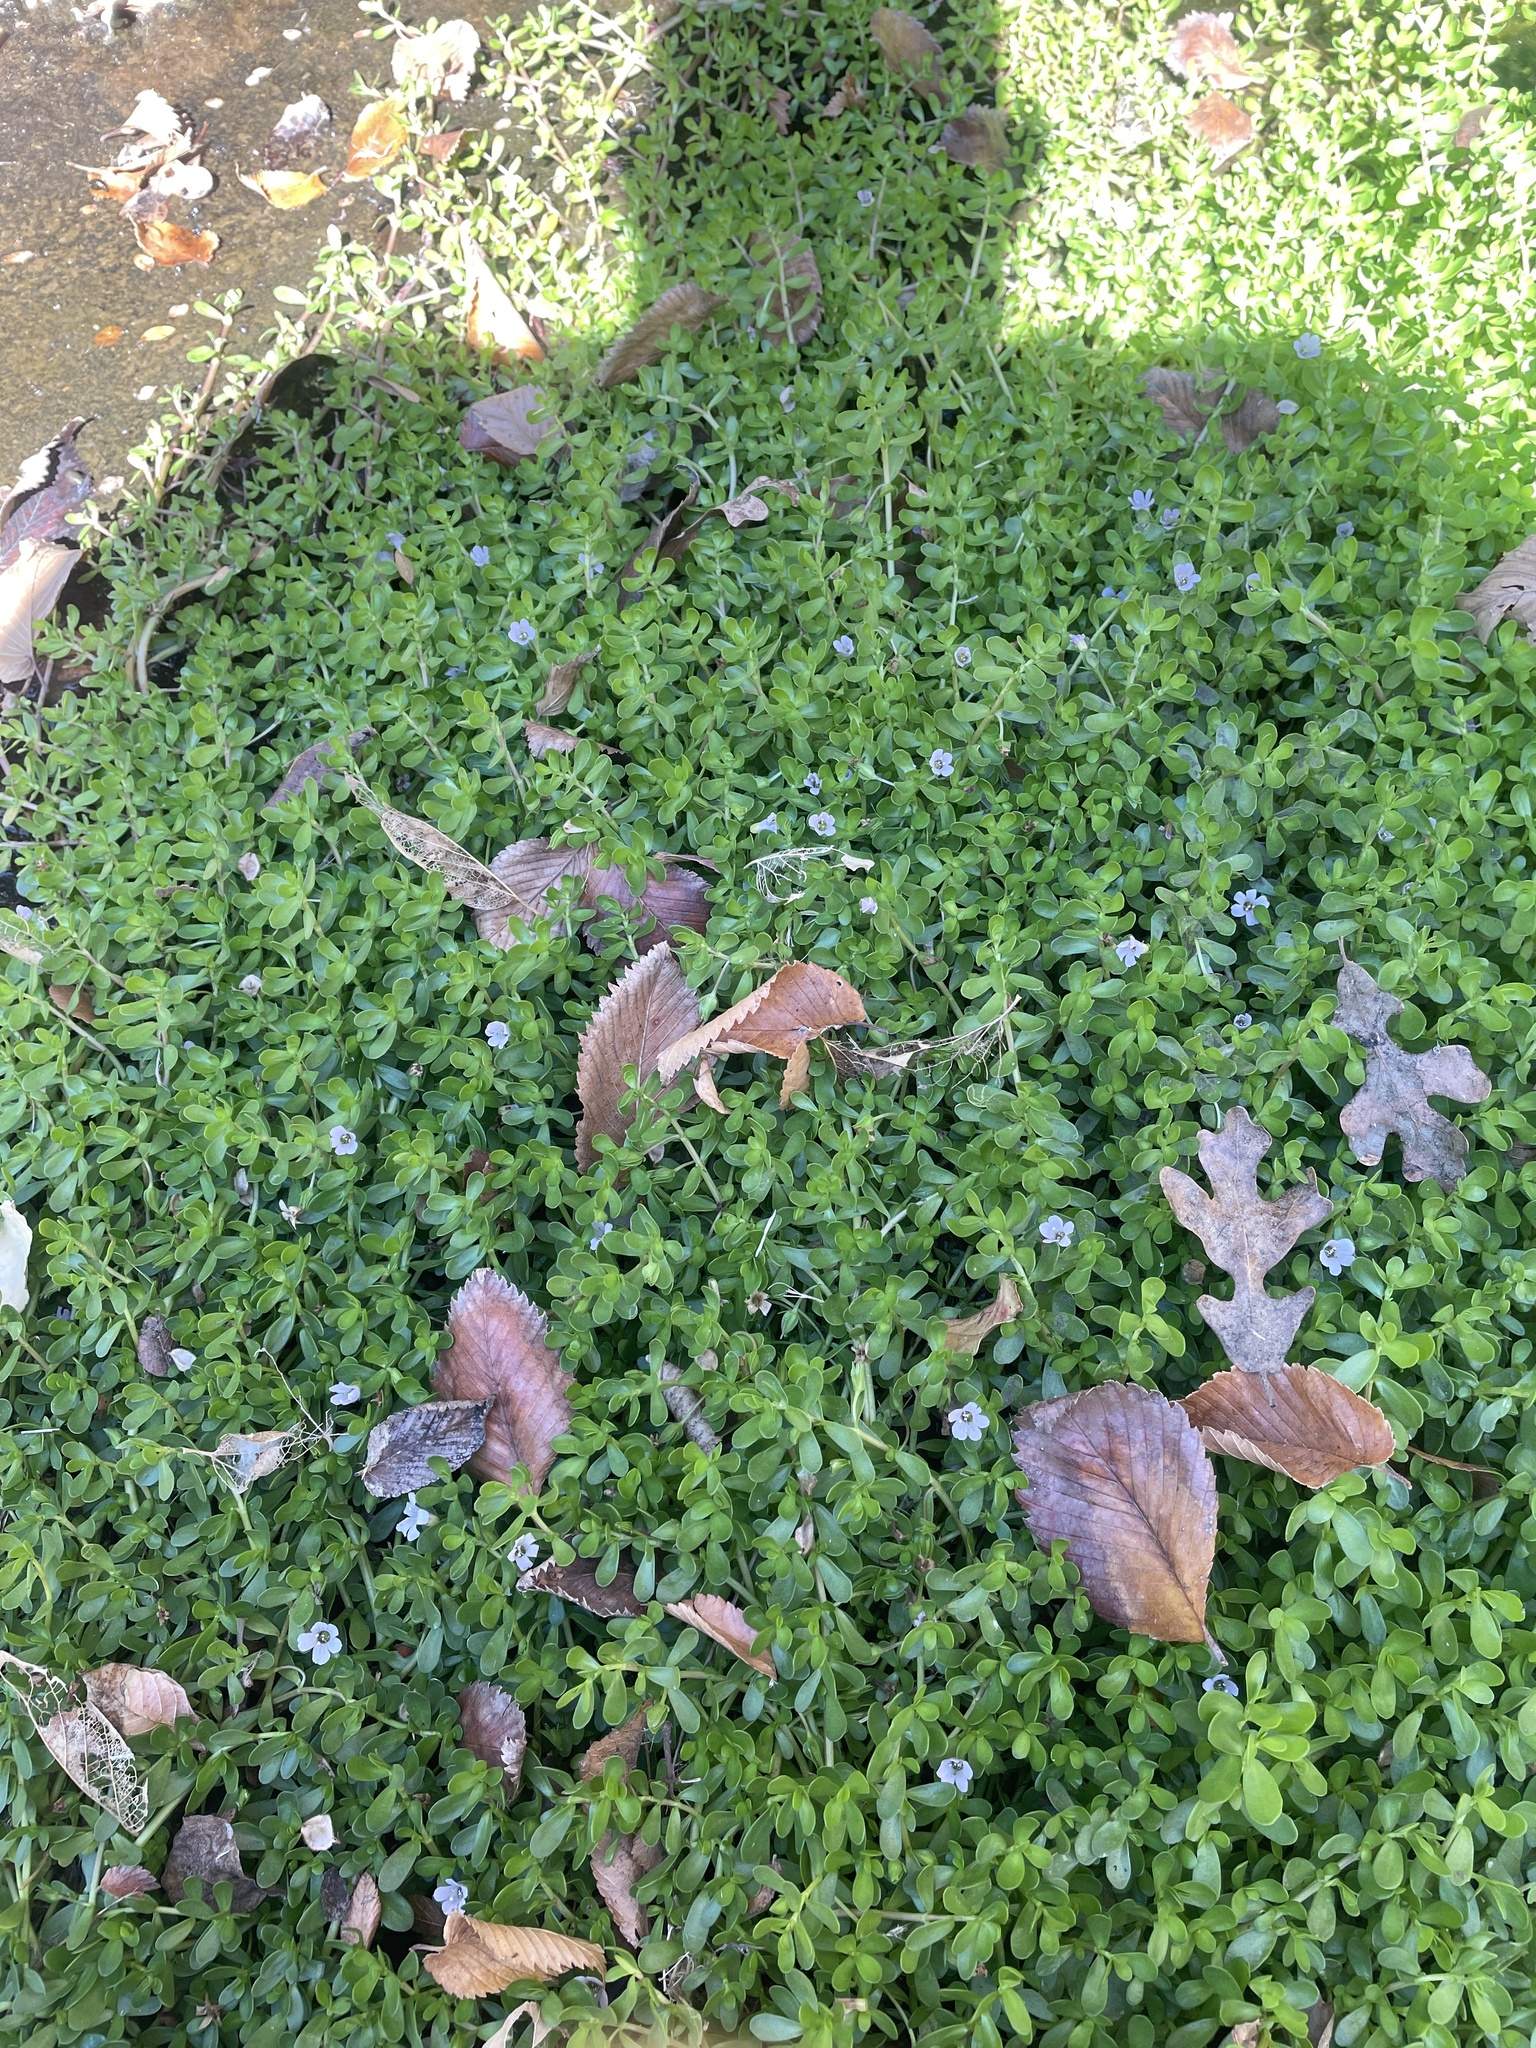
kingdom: Plantae
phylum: Tracheophyta
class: Magnoliopsida
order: Lamiales
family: Plantaginaceae
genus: Bacopa
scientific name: Bacopa monnieri
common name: Indian-pennywort
